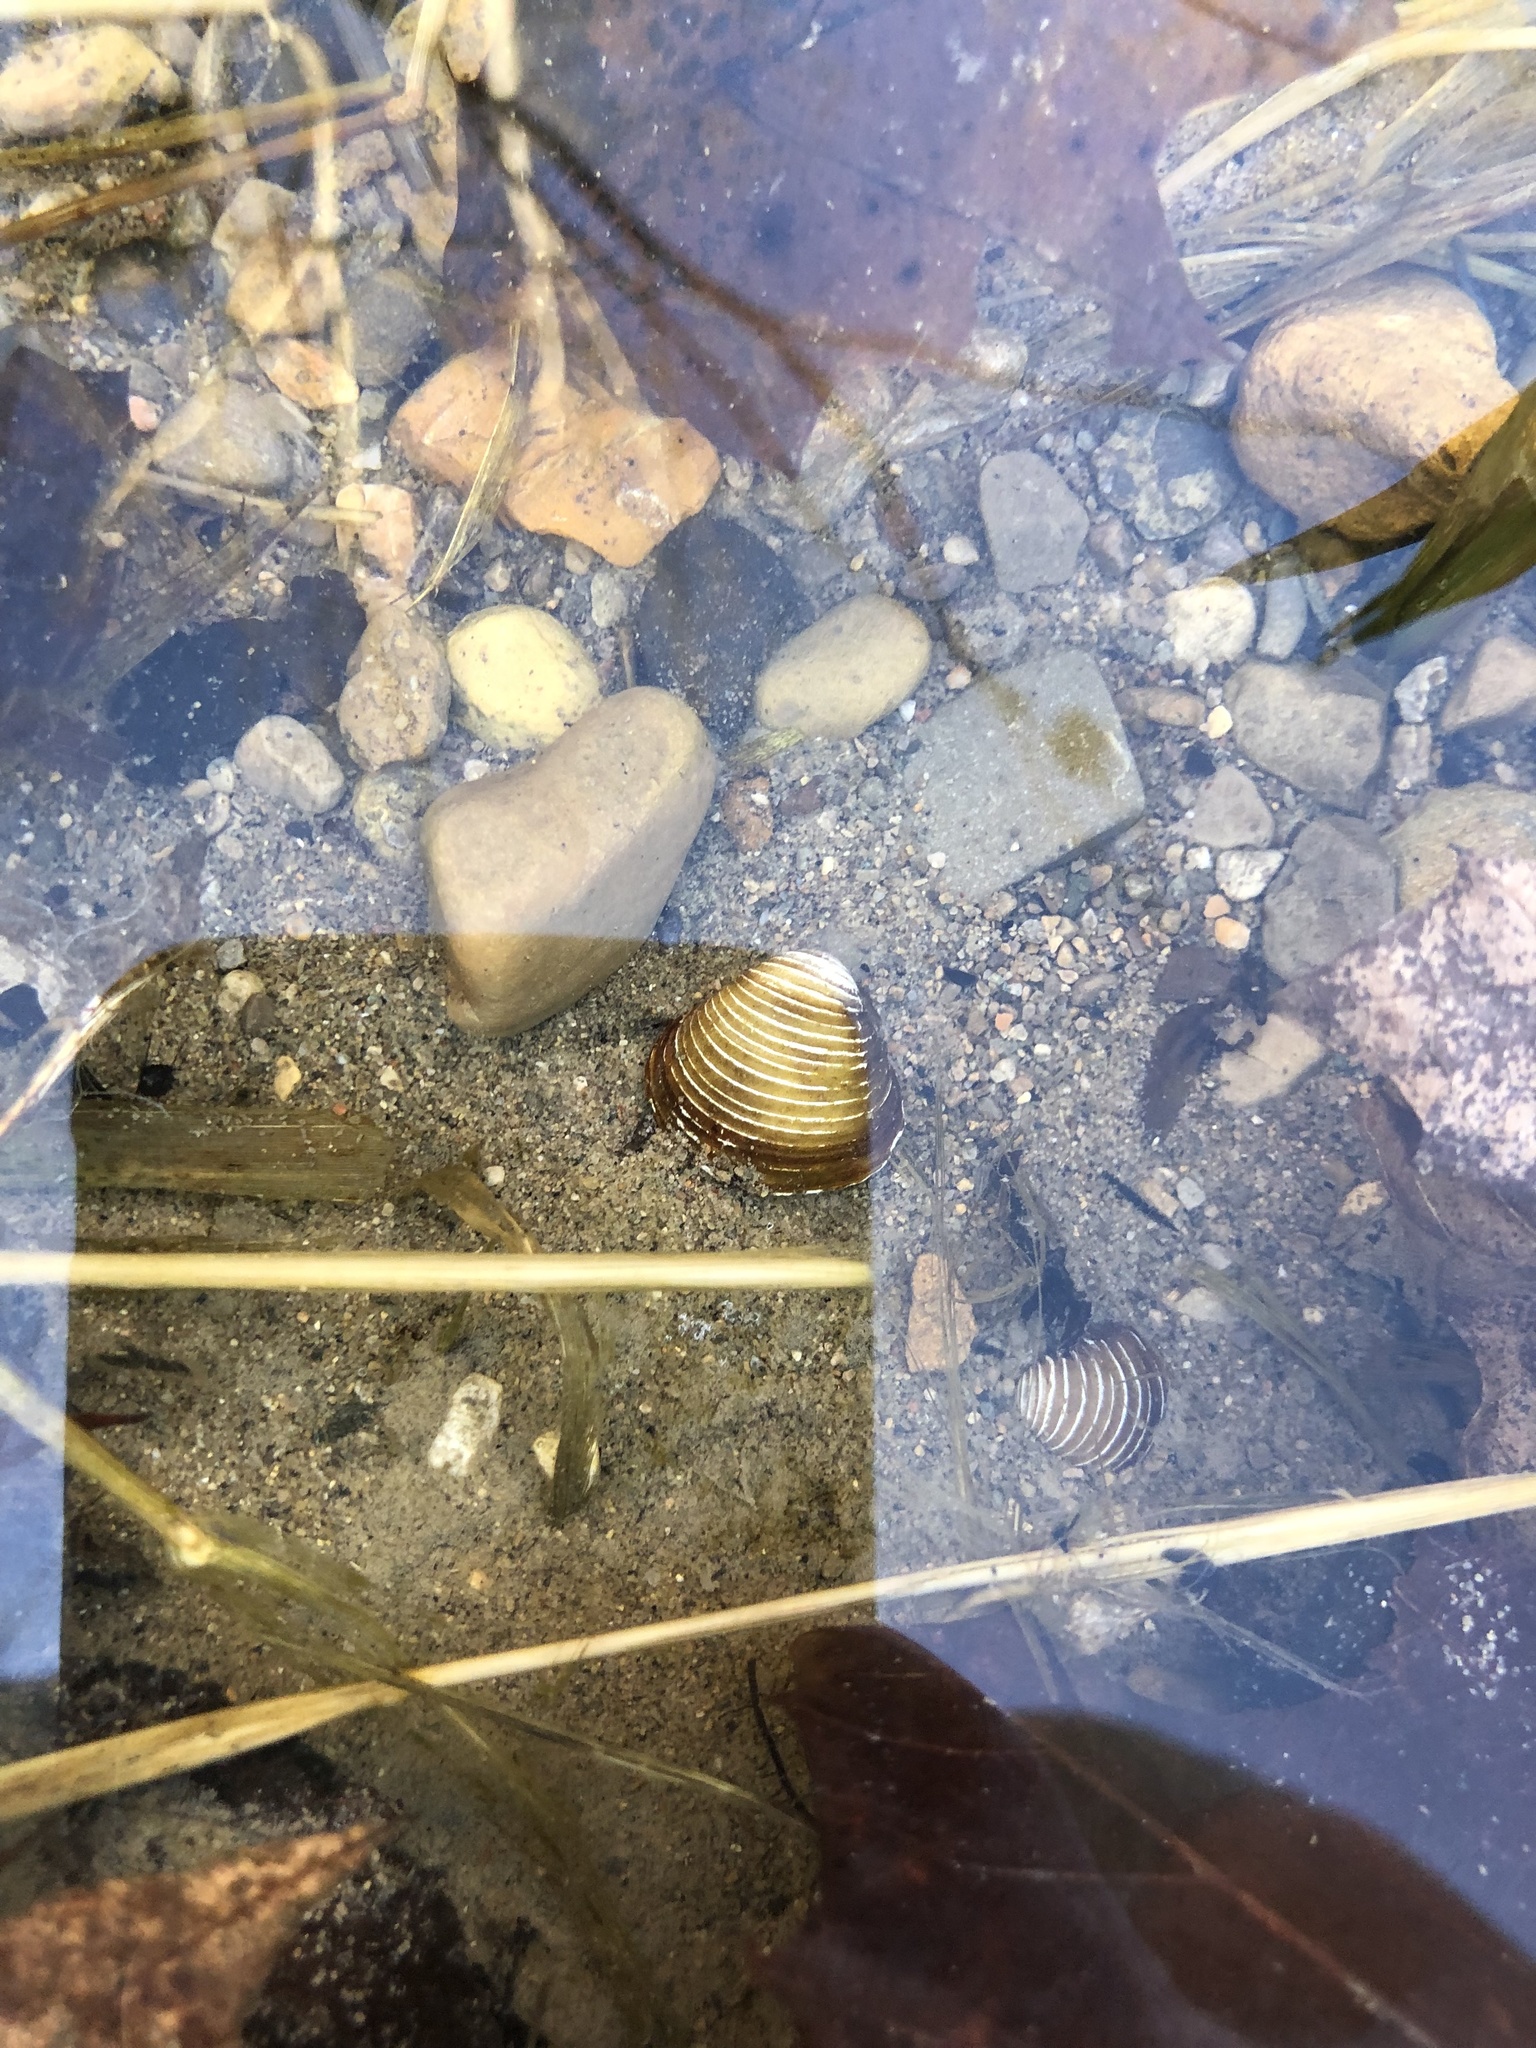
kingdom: Animalia
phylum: Mollusca
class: Bivalvia
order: Venerida
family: Cyrenidae
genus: Corbicula
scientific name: Corbicula fluminea
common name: Asian clam
